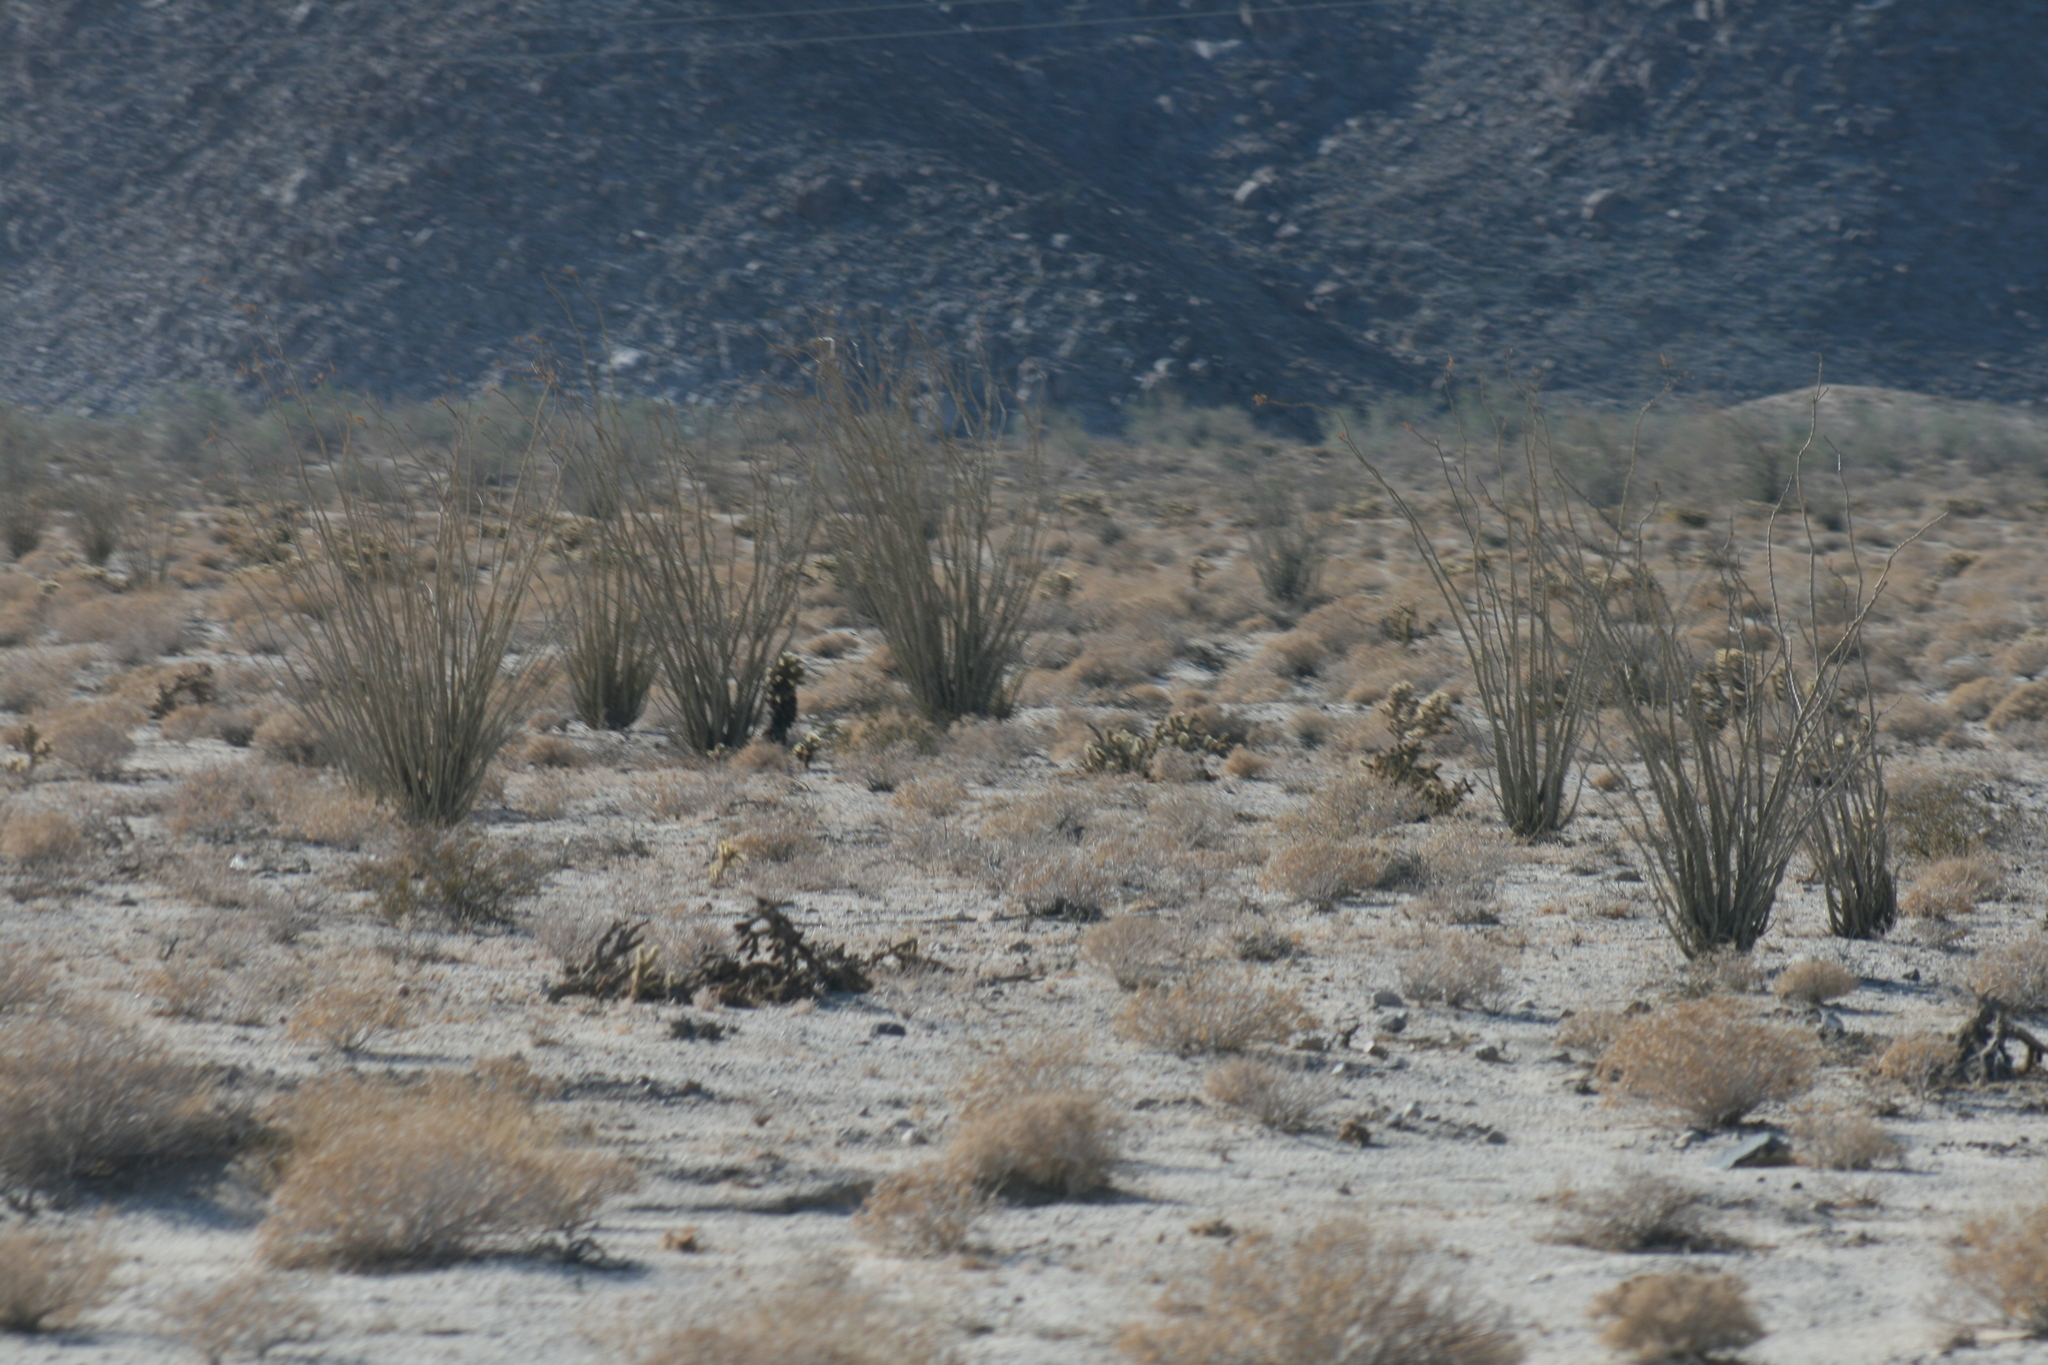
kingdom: Plantae
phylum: Tracheophyta
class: Magnoliopsida
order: Ericales
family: Fouquieriaceae
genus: Fouquieria
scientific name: Fouquieria splendens
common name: Vine-cactus
